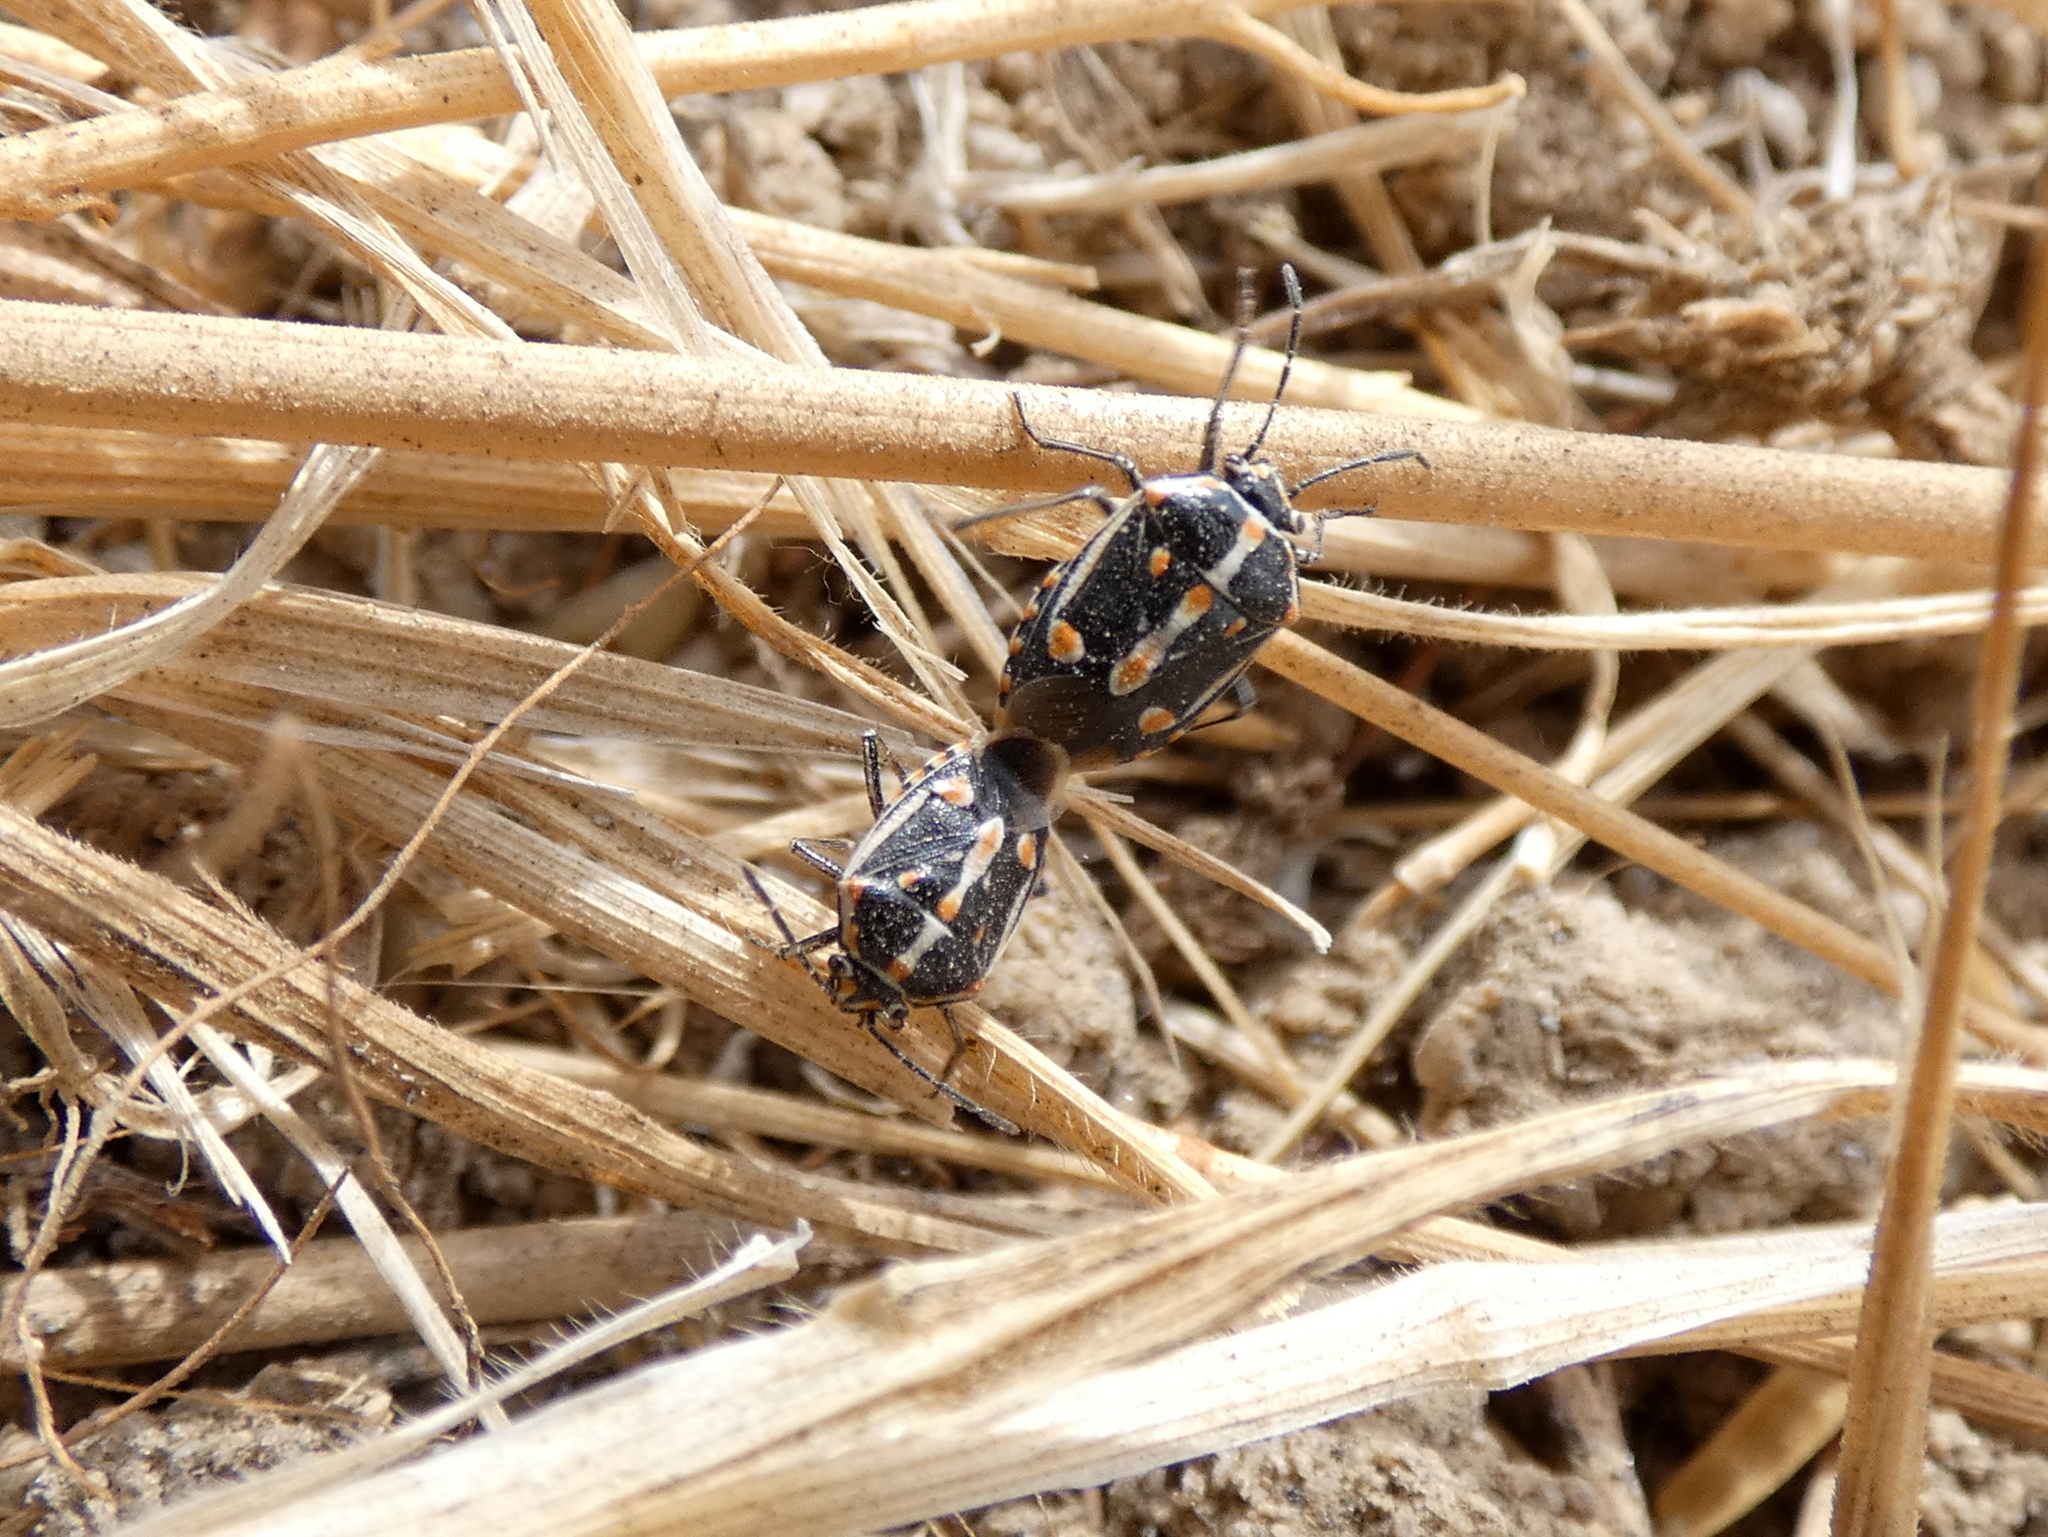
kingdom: Animalia
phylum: Arthropoda
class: Insecta
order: Hemiptera
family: Pentatomidae
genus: Bagrada
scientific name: Bagrada hilaris
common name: Bagrada bug
